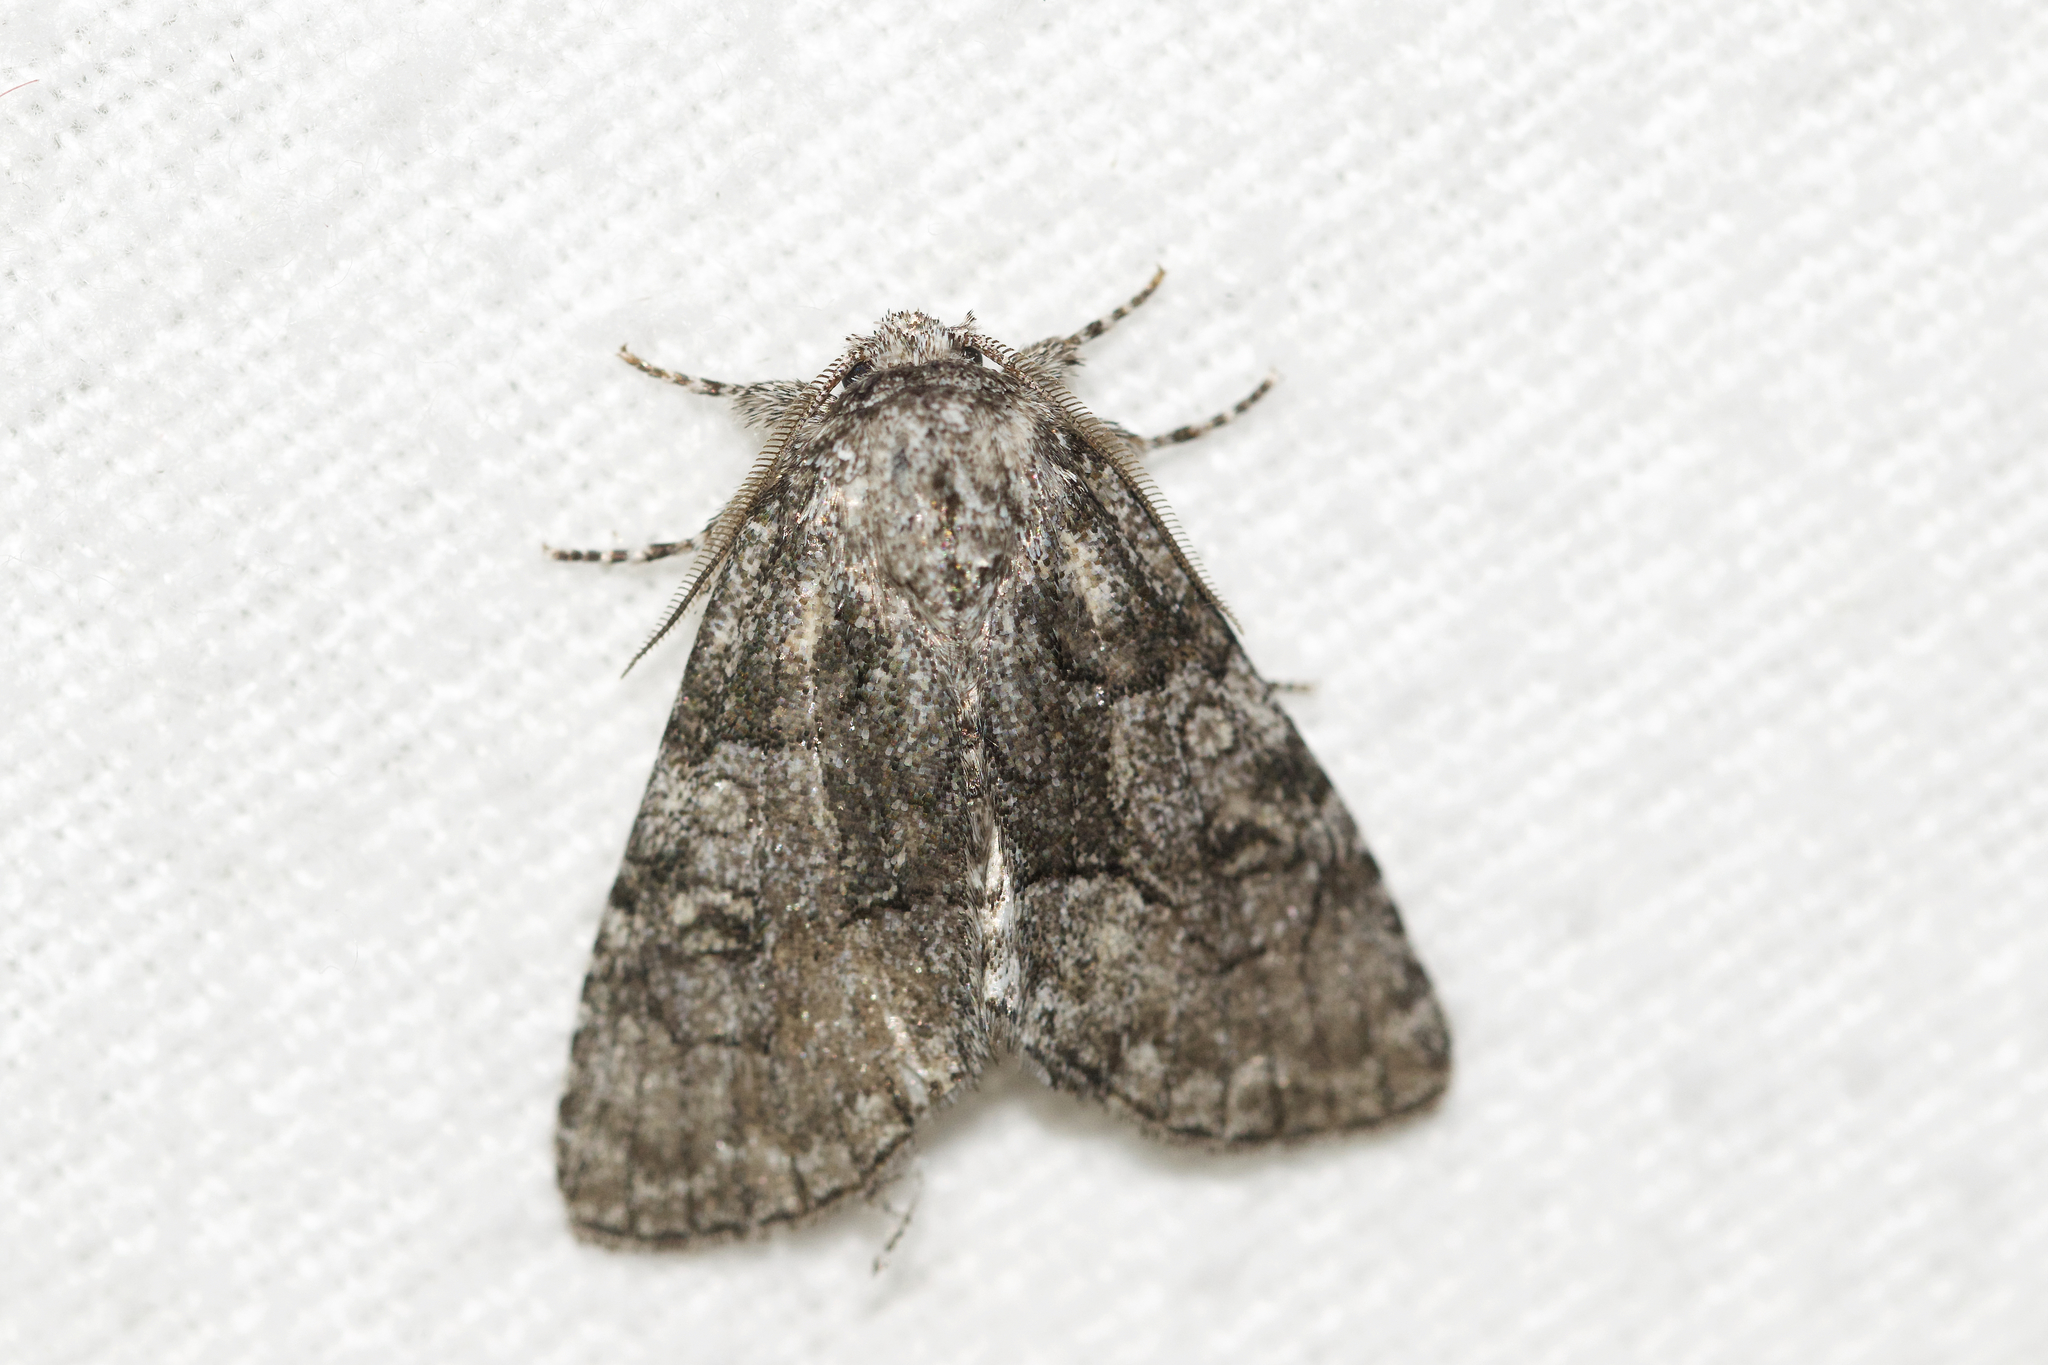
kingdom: Animalia
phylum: Arthropoda
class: Insecta
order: Lepidoptera
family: Noctuidae
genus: Raphia
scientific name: Raphia frater
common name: Brother
